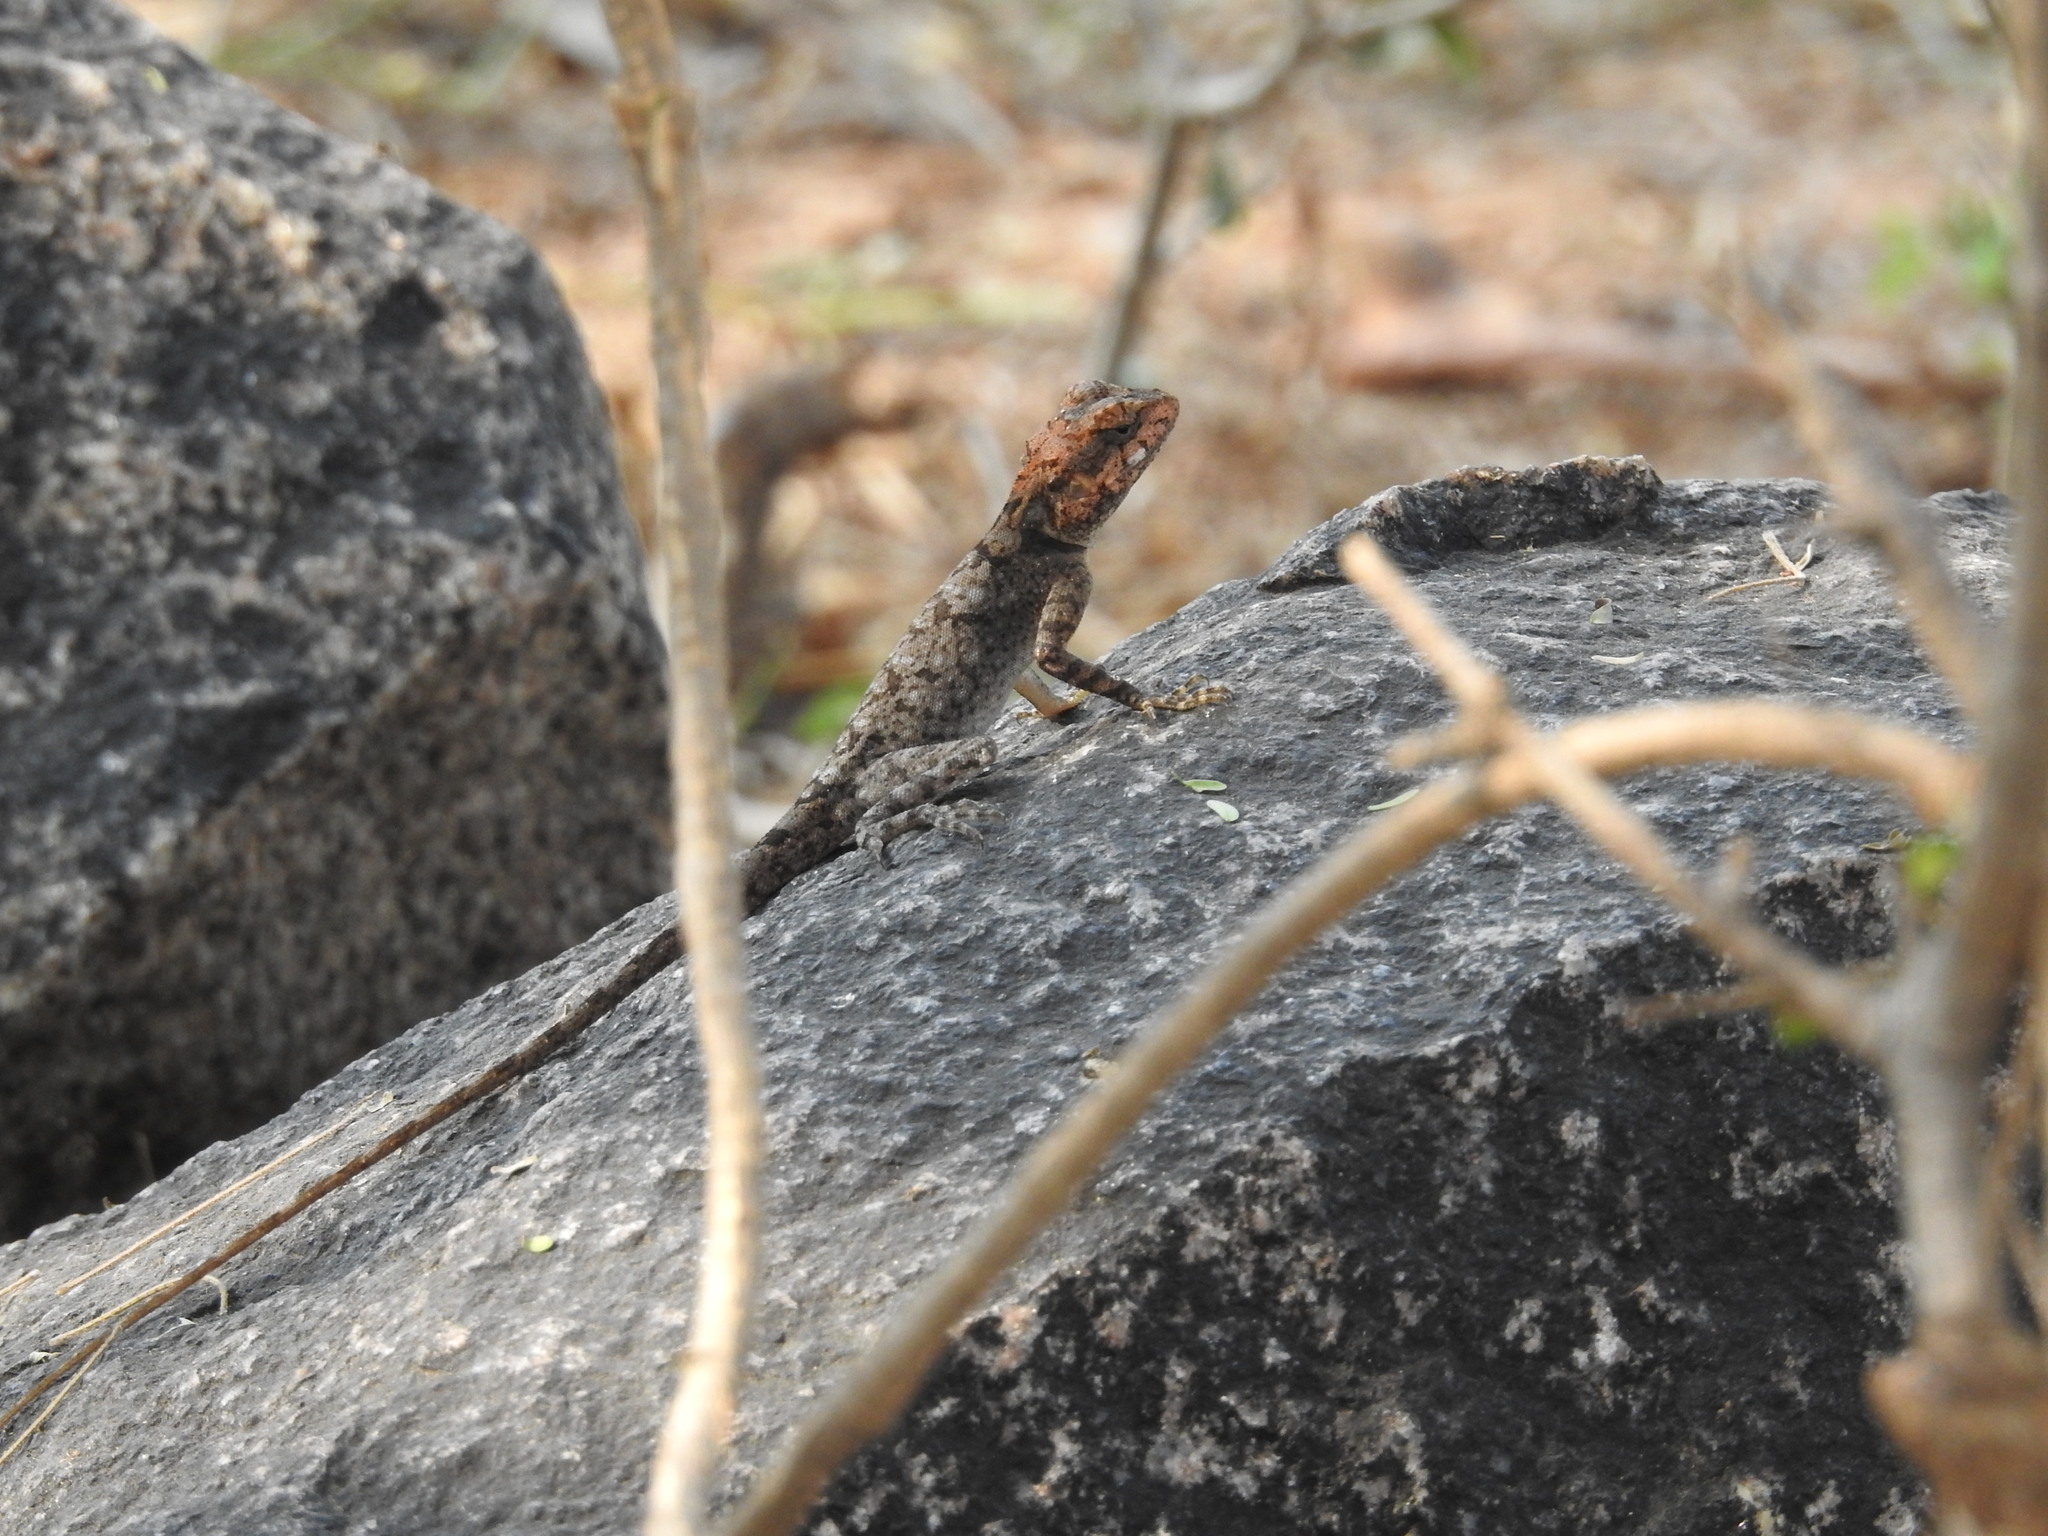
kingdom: Animalia
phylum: Chordata
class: Squamata
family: Agamidae
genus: Psammophilus
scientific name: Psammophilus dorsalis
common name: South indian rock agama
